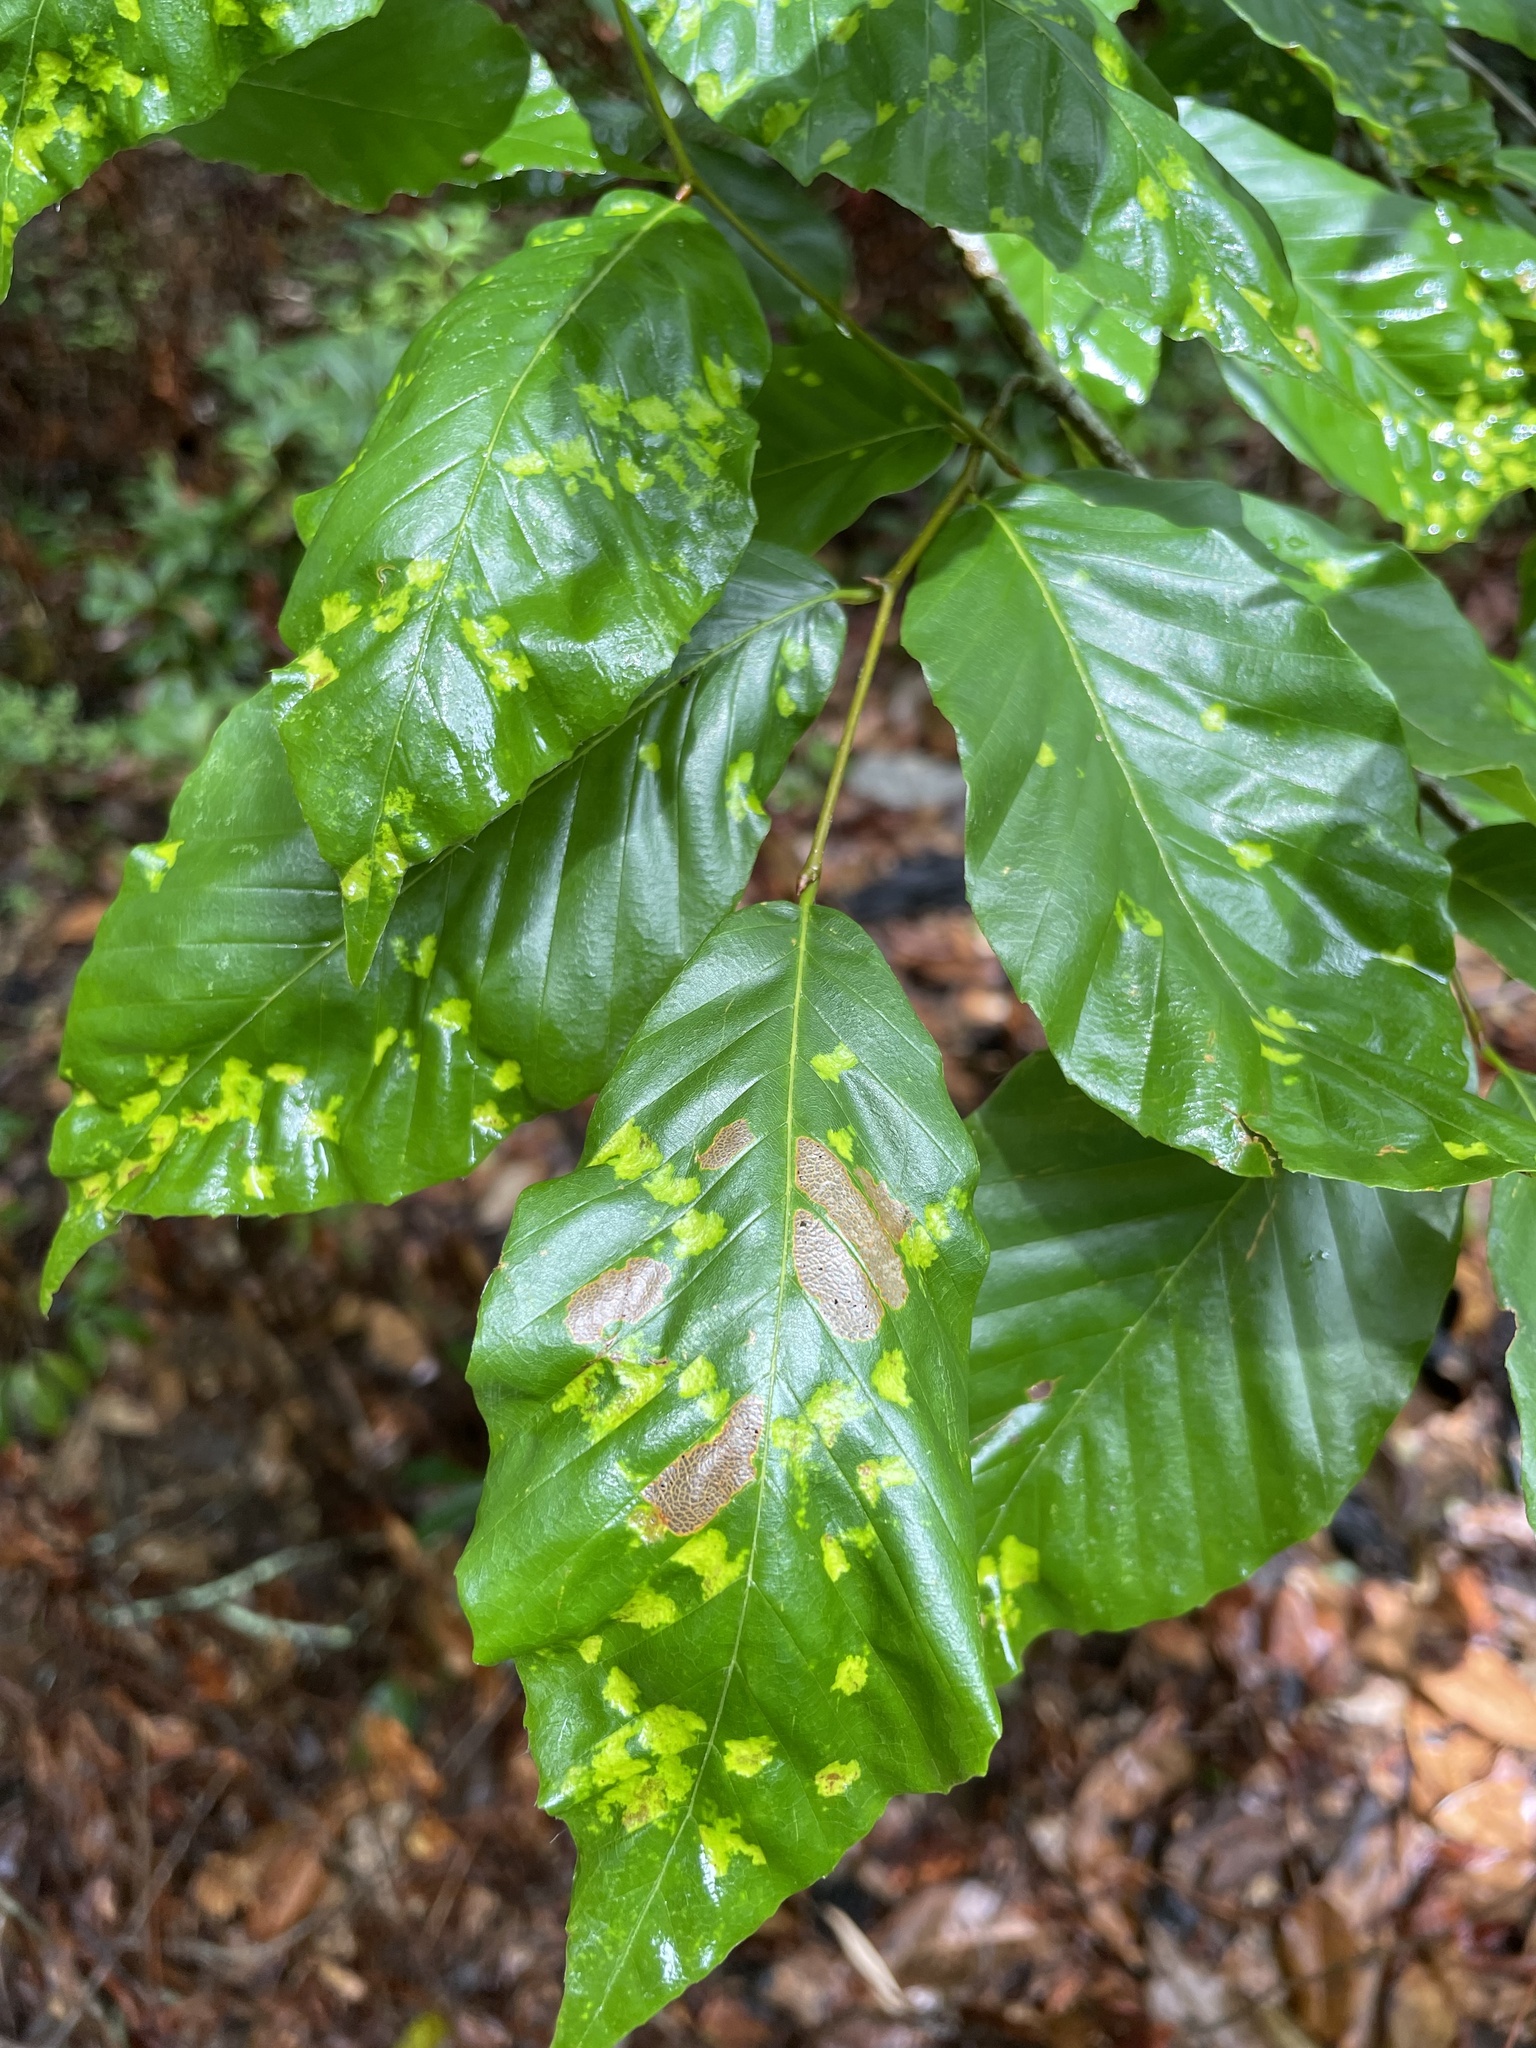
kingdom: Animalia
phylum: Arthropoda
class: Arachnida
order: Trombidiformes
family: Eriophyidae
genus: Acalitus
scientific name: Acalitus
